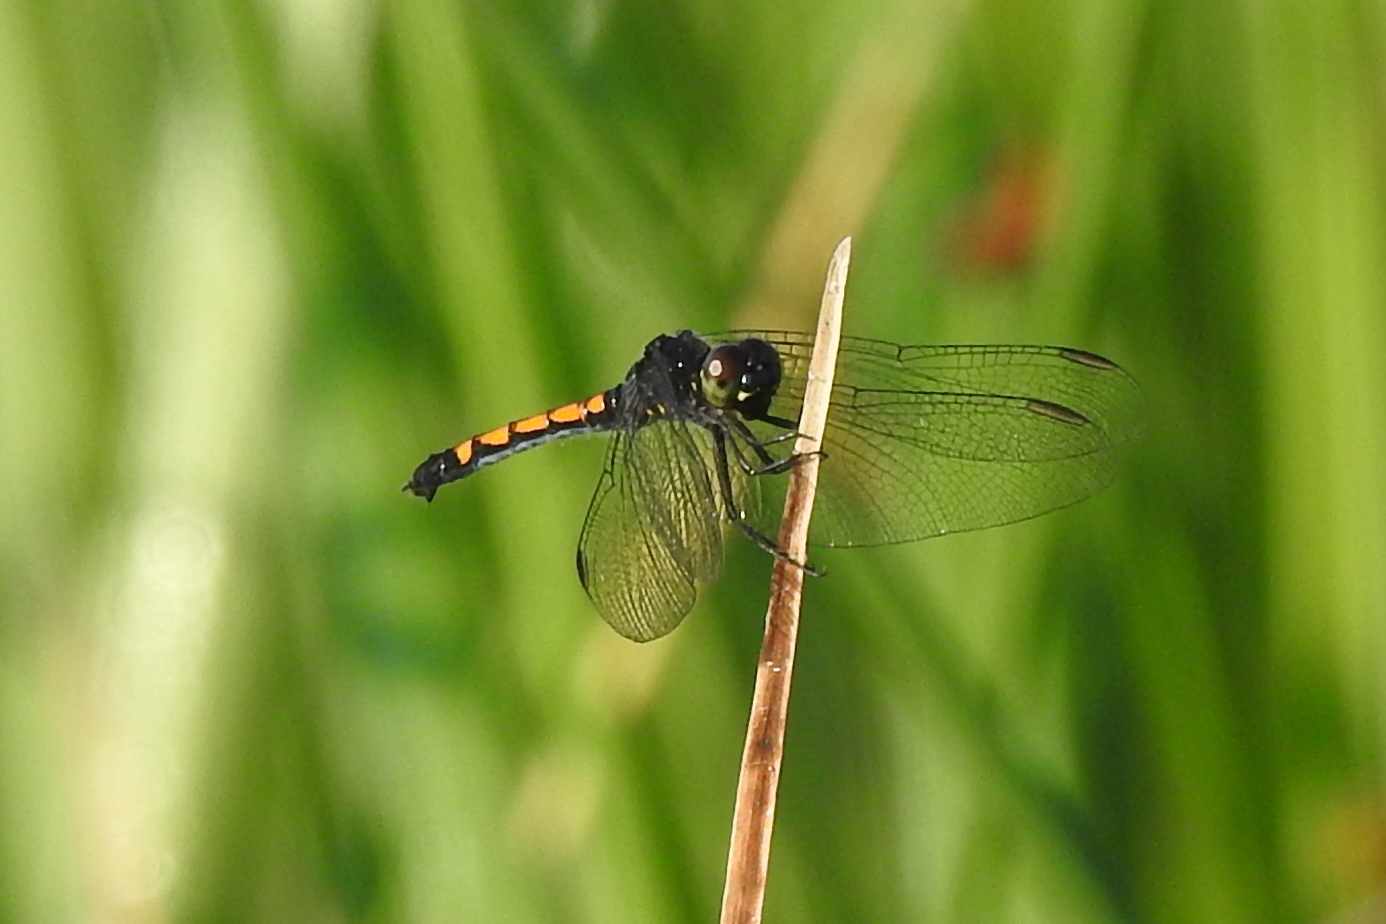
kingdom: Animalia
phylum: Arthropoda
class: Insecta
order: Odonata
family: Libellulidae
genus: Erythrodiplax
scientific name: Erythrodiplax berenice
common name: Seaside dragonlet
